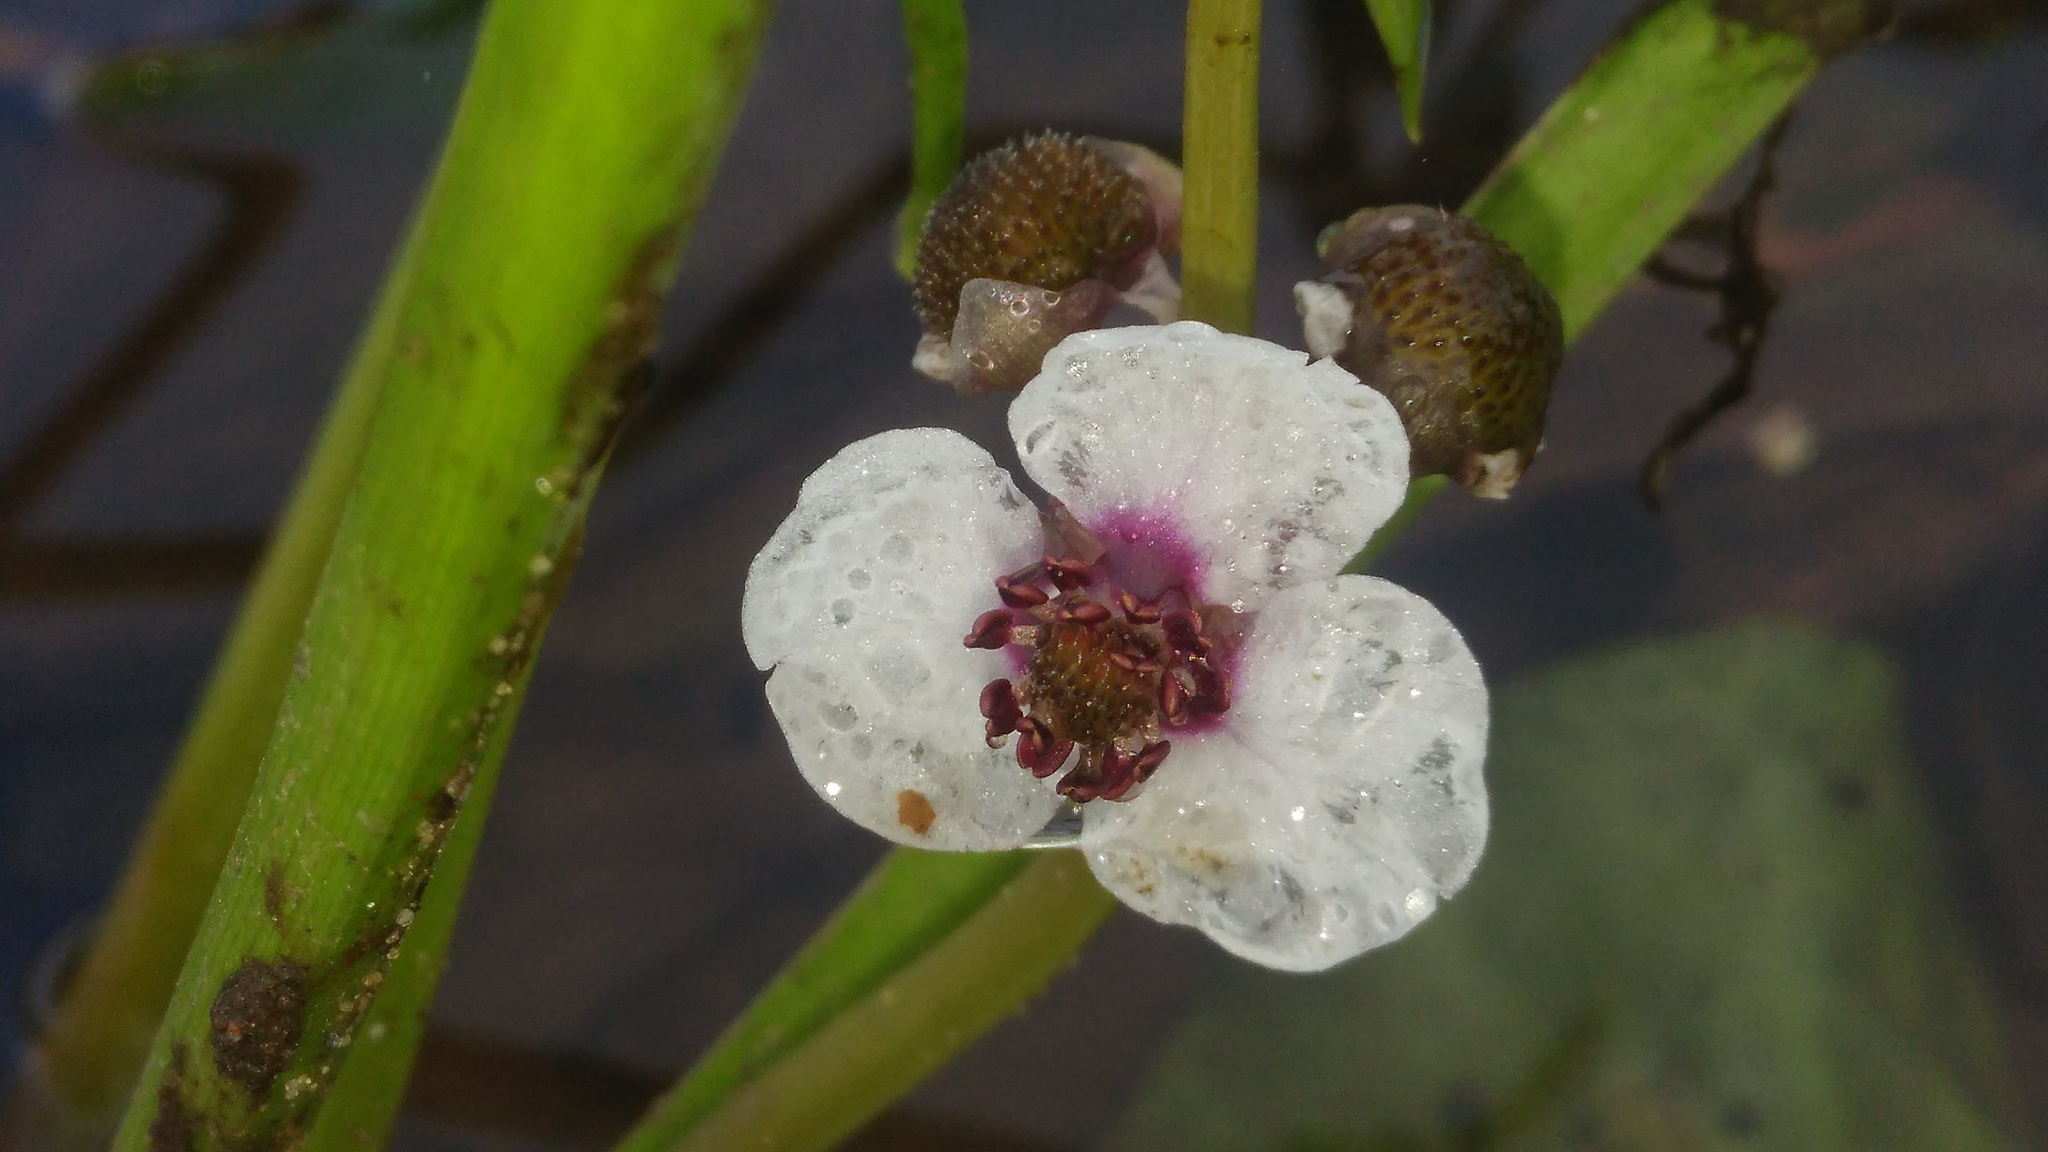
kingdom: Plantae
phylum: Tracheophyta
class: Liliopsida
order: Alismatales
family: Alismataceae
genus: Sagittaria
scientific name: Sagittaria sagittifolia
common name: Arrowhead
